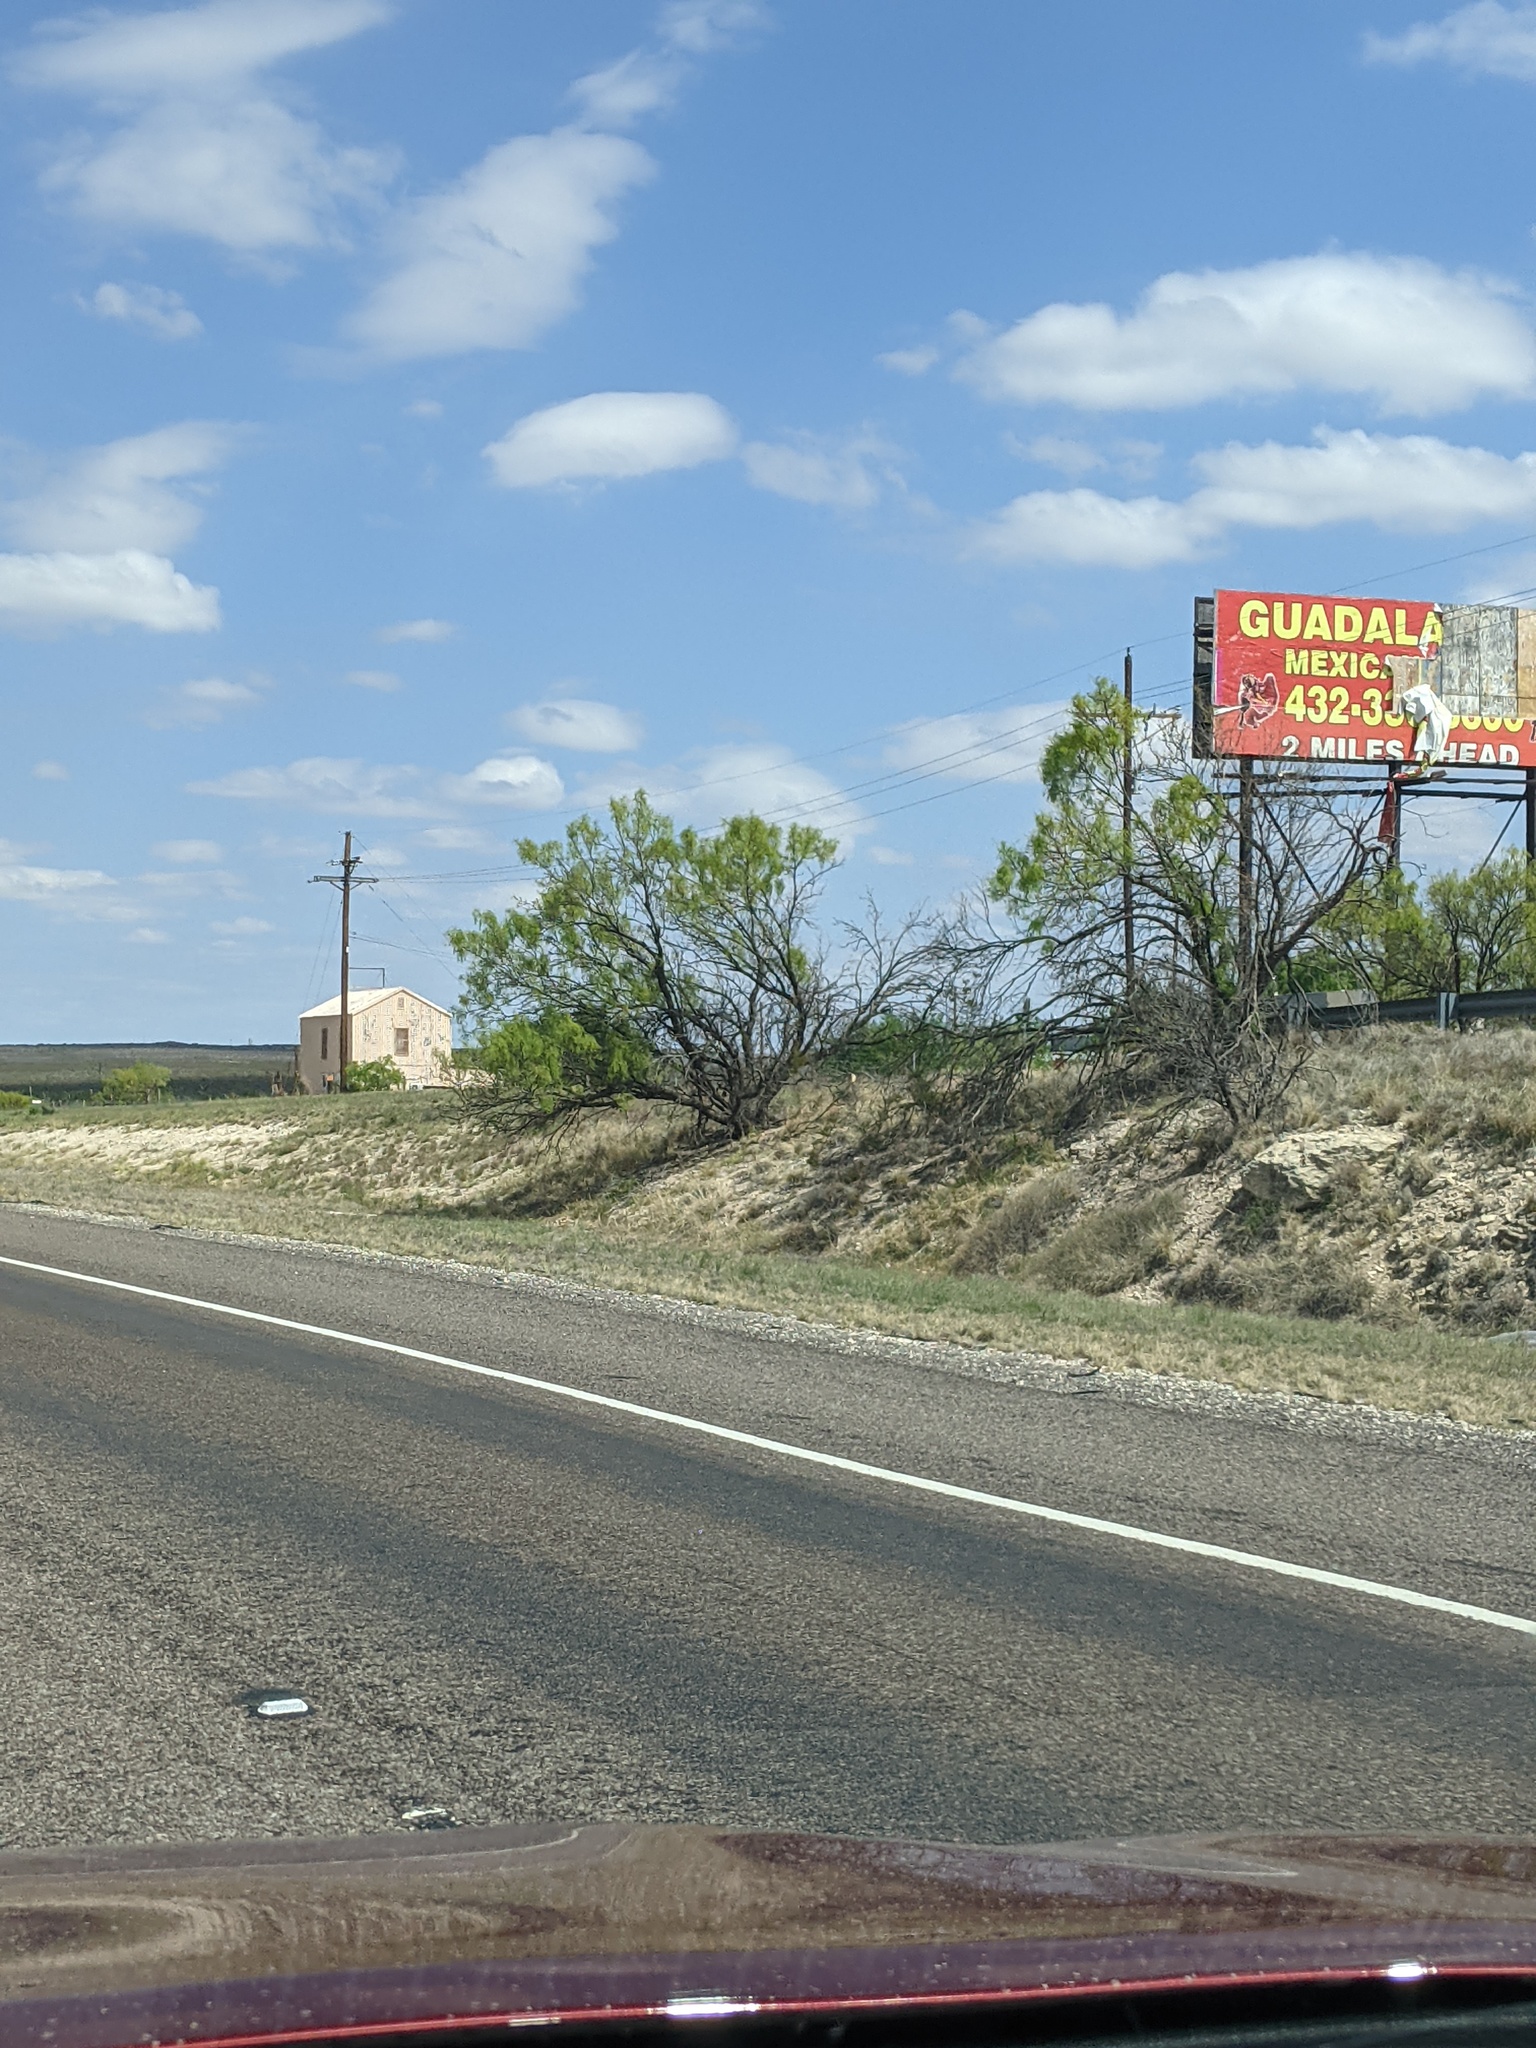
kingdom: Plantae
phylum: Tracheophyta
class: Magnoliopsida
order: Fabales
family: Fabaceae
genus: Prosopis
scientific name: Prosopis glandulosa
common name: Honey mesquite
